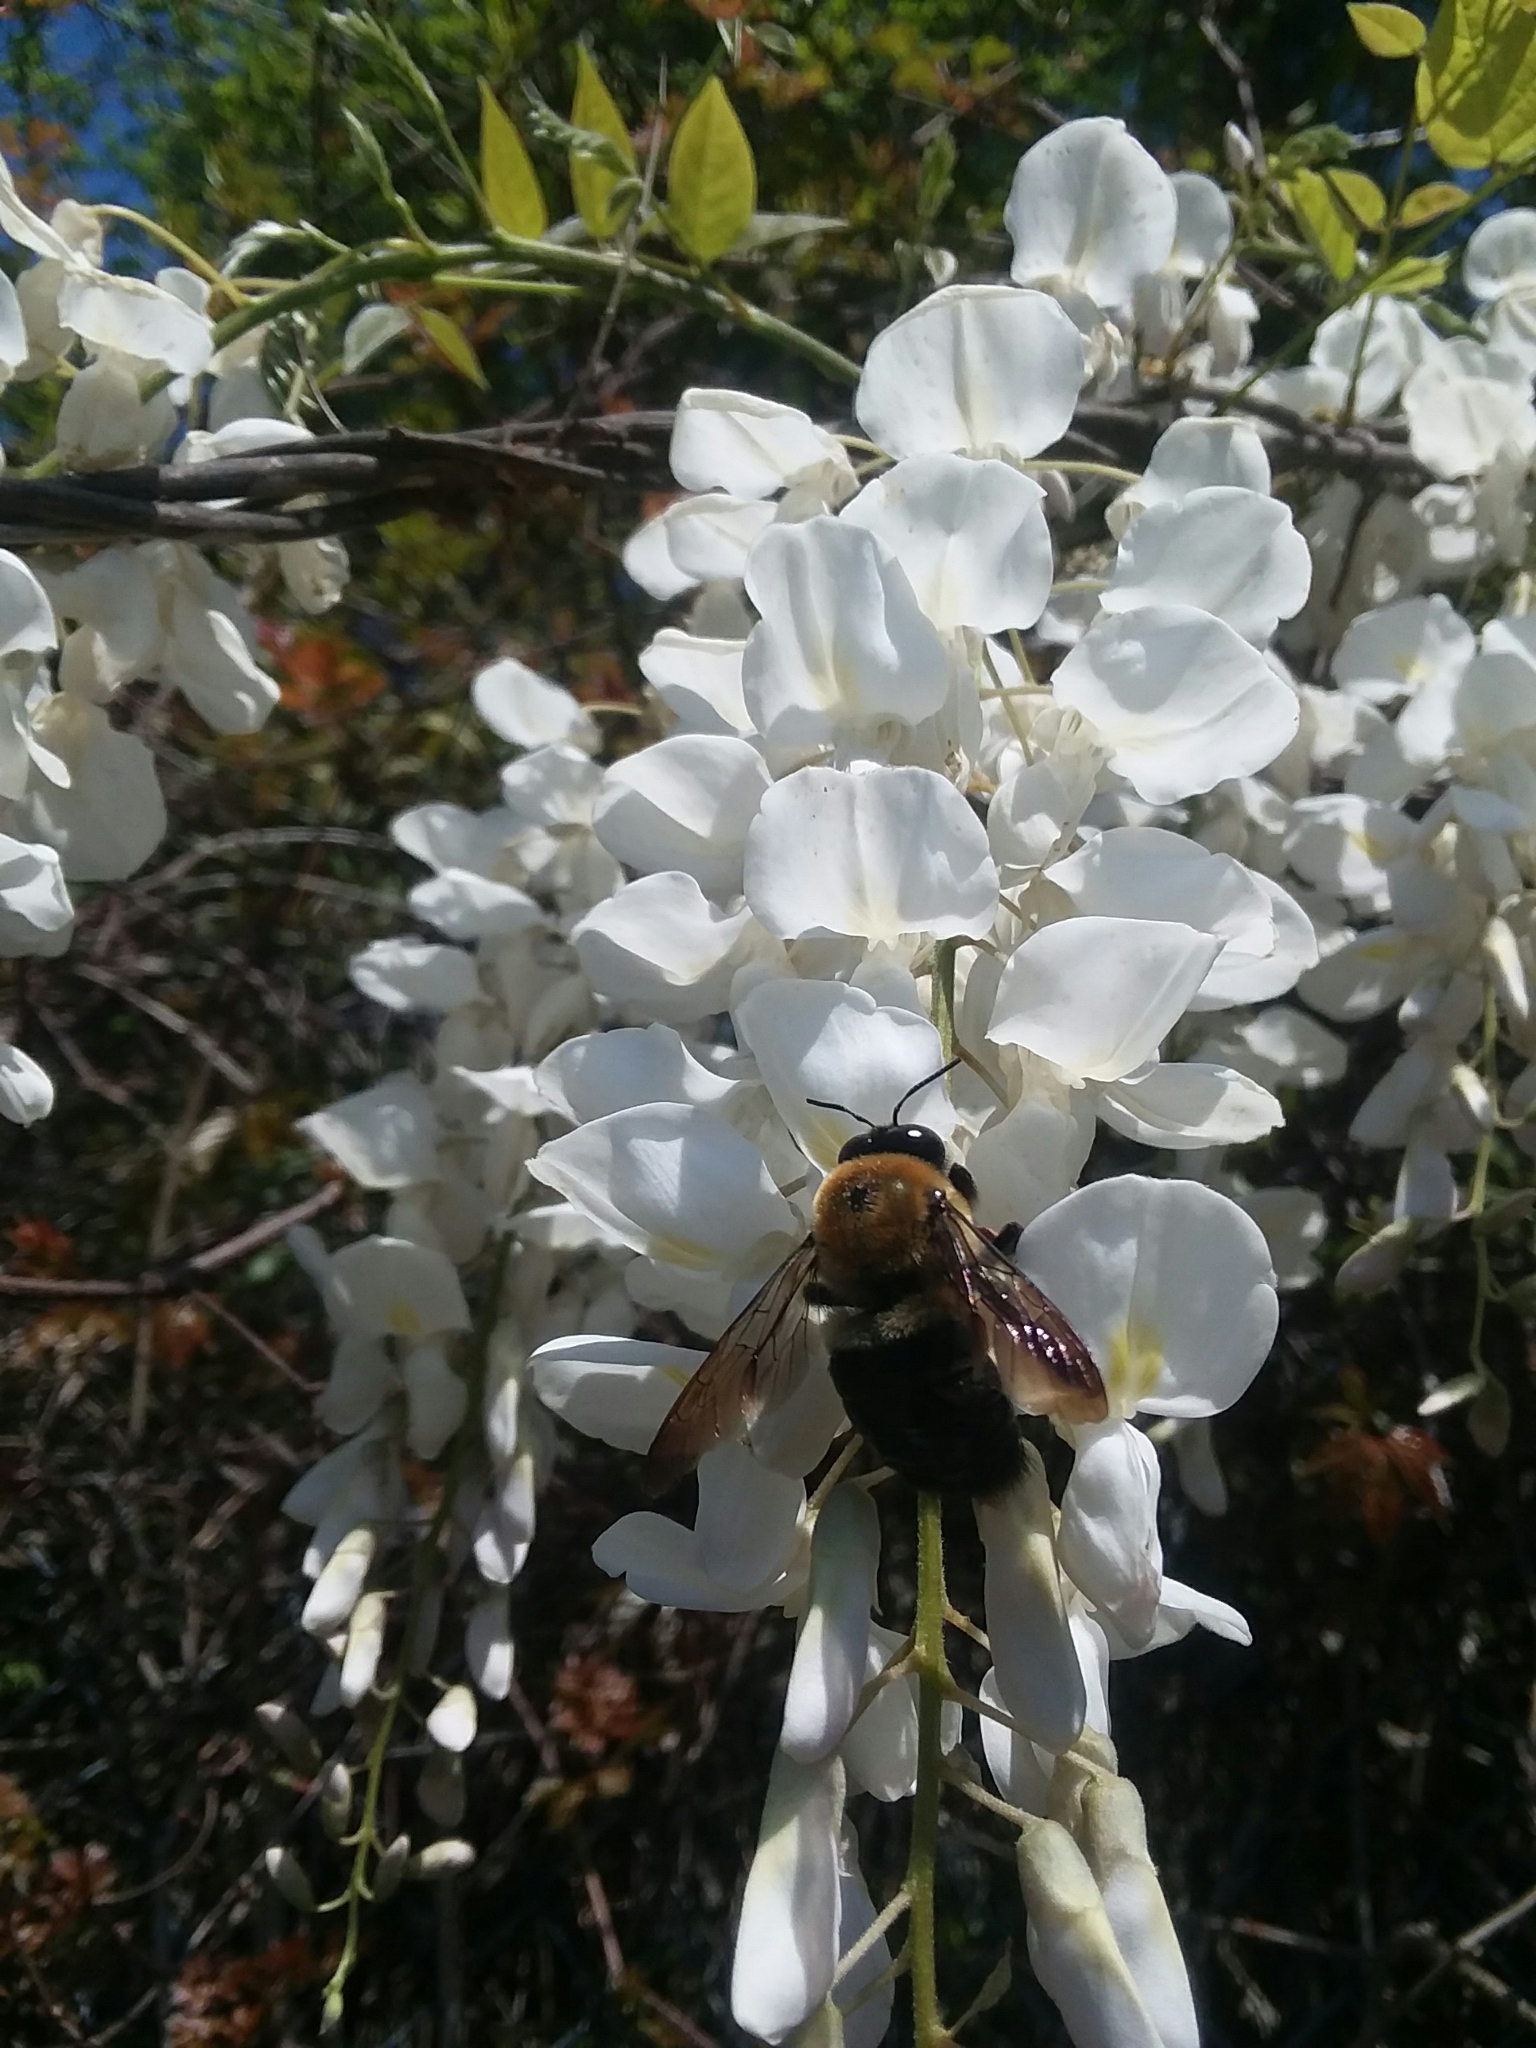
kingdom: Animalia
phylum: Arthropoda
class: Insecta
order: Hymenoptera
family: Apidae
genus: Xylocopa
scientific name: Xylocopa virginica
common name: Carpenter bee
